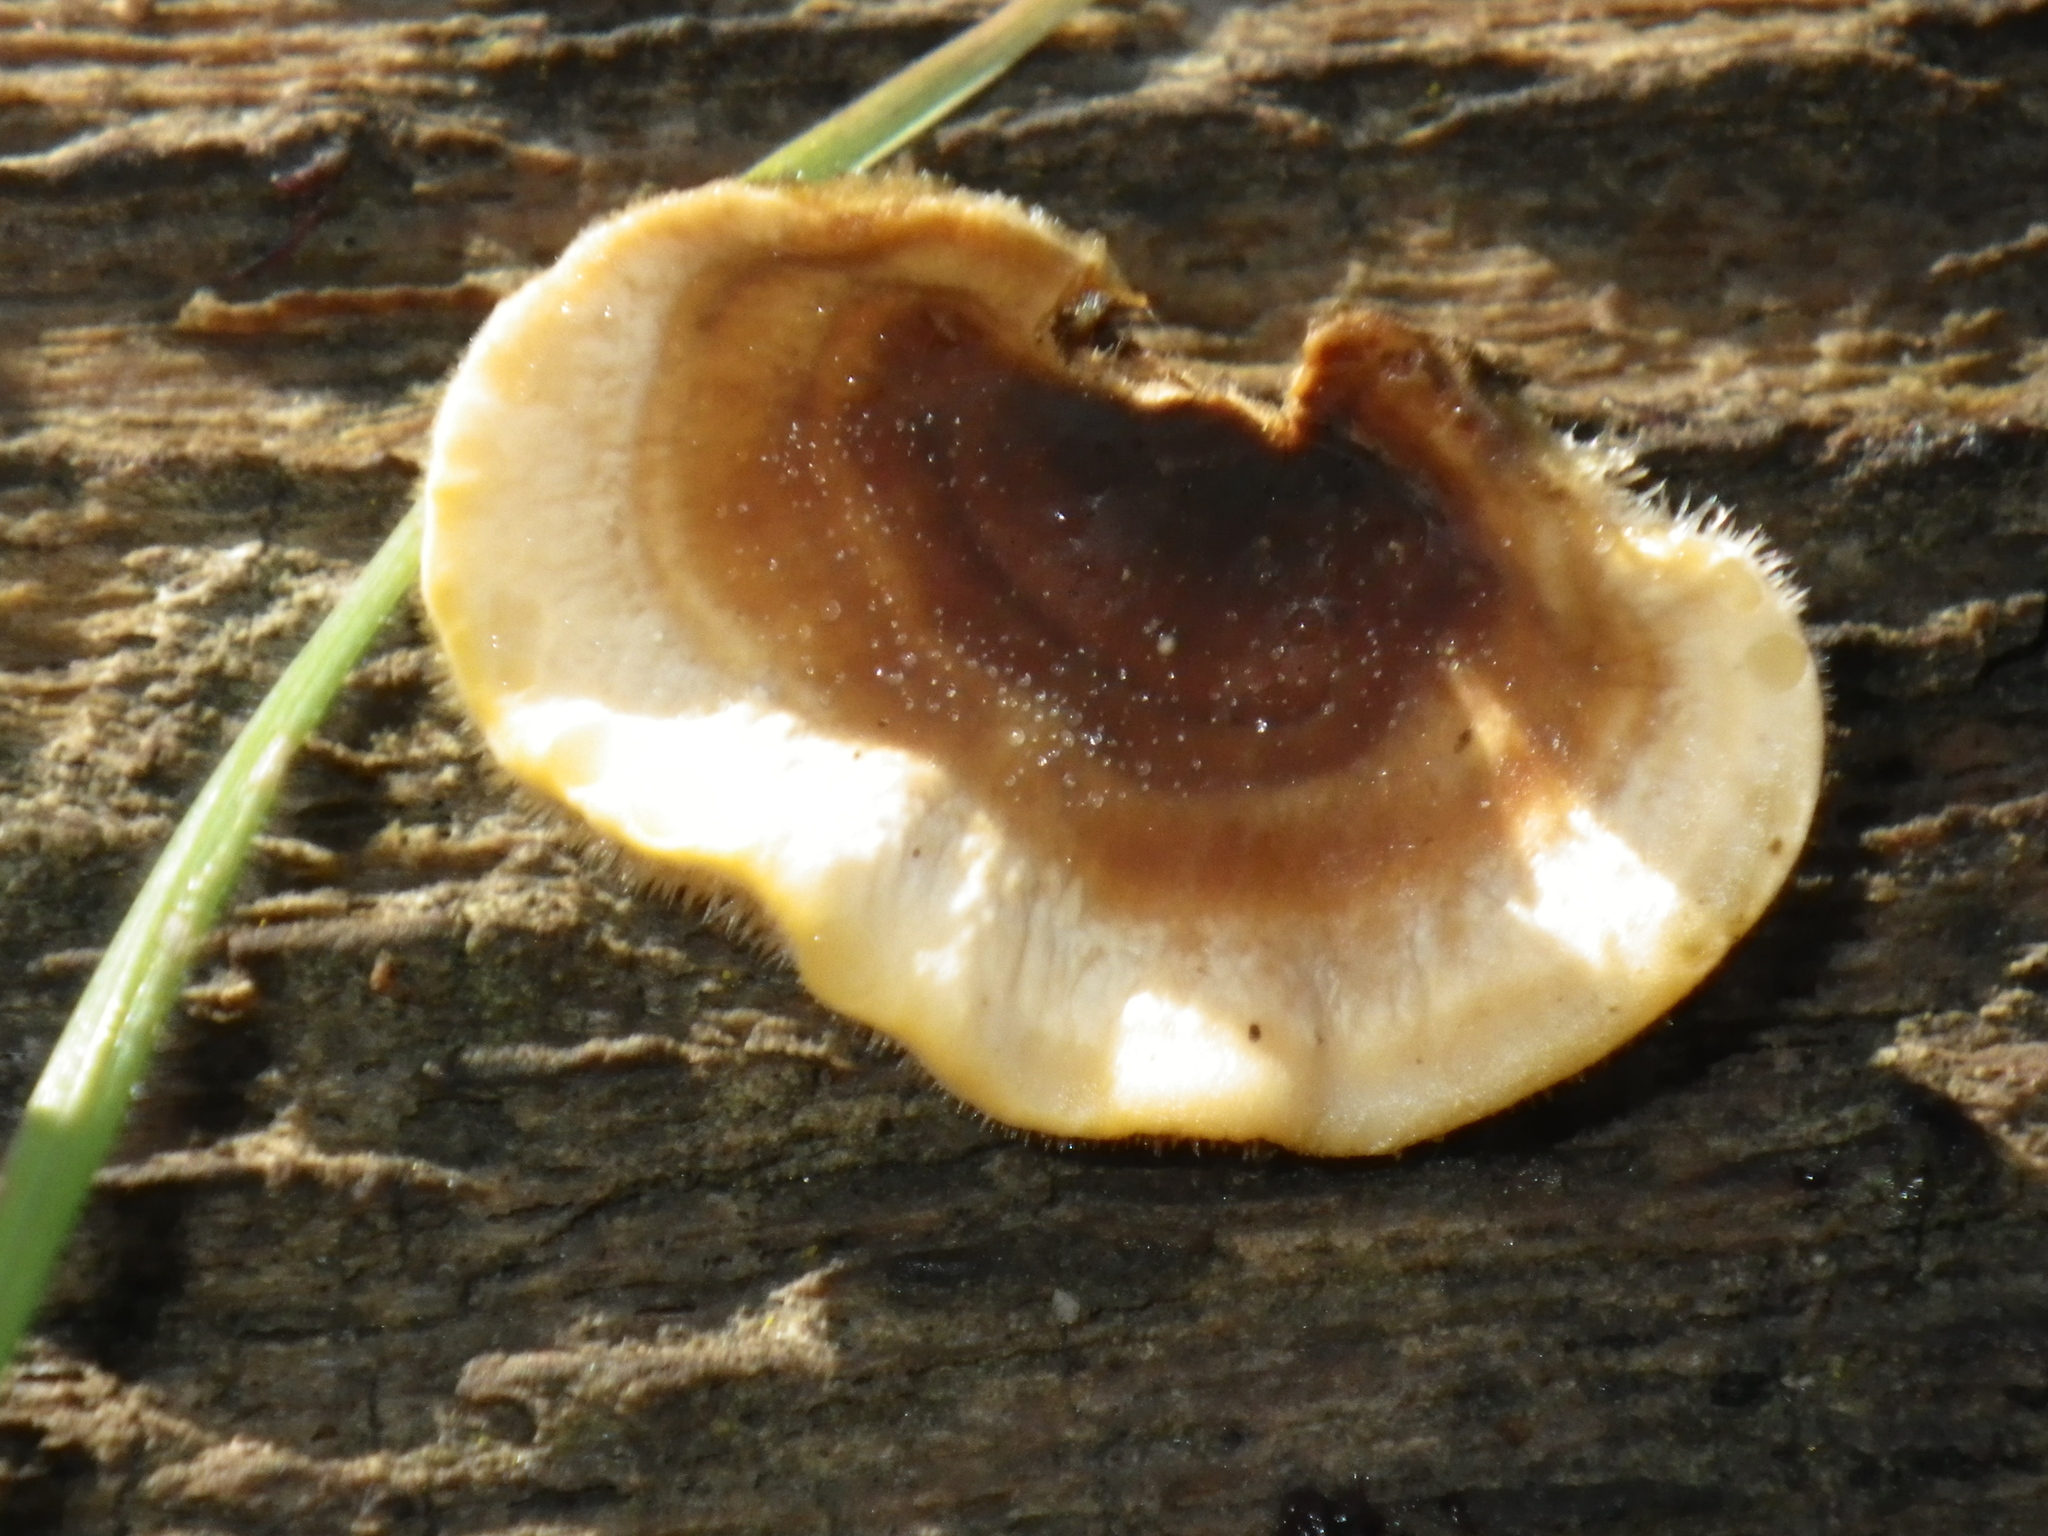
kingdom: Fungi
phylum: Basidiomycota
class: Agaricomycetes
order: Russulales
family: Stereaceae
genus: Stereum
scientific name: Stereum hirsutum
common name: Hairy curtain crust
